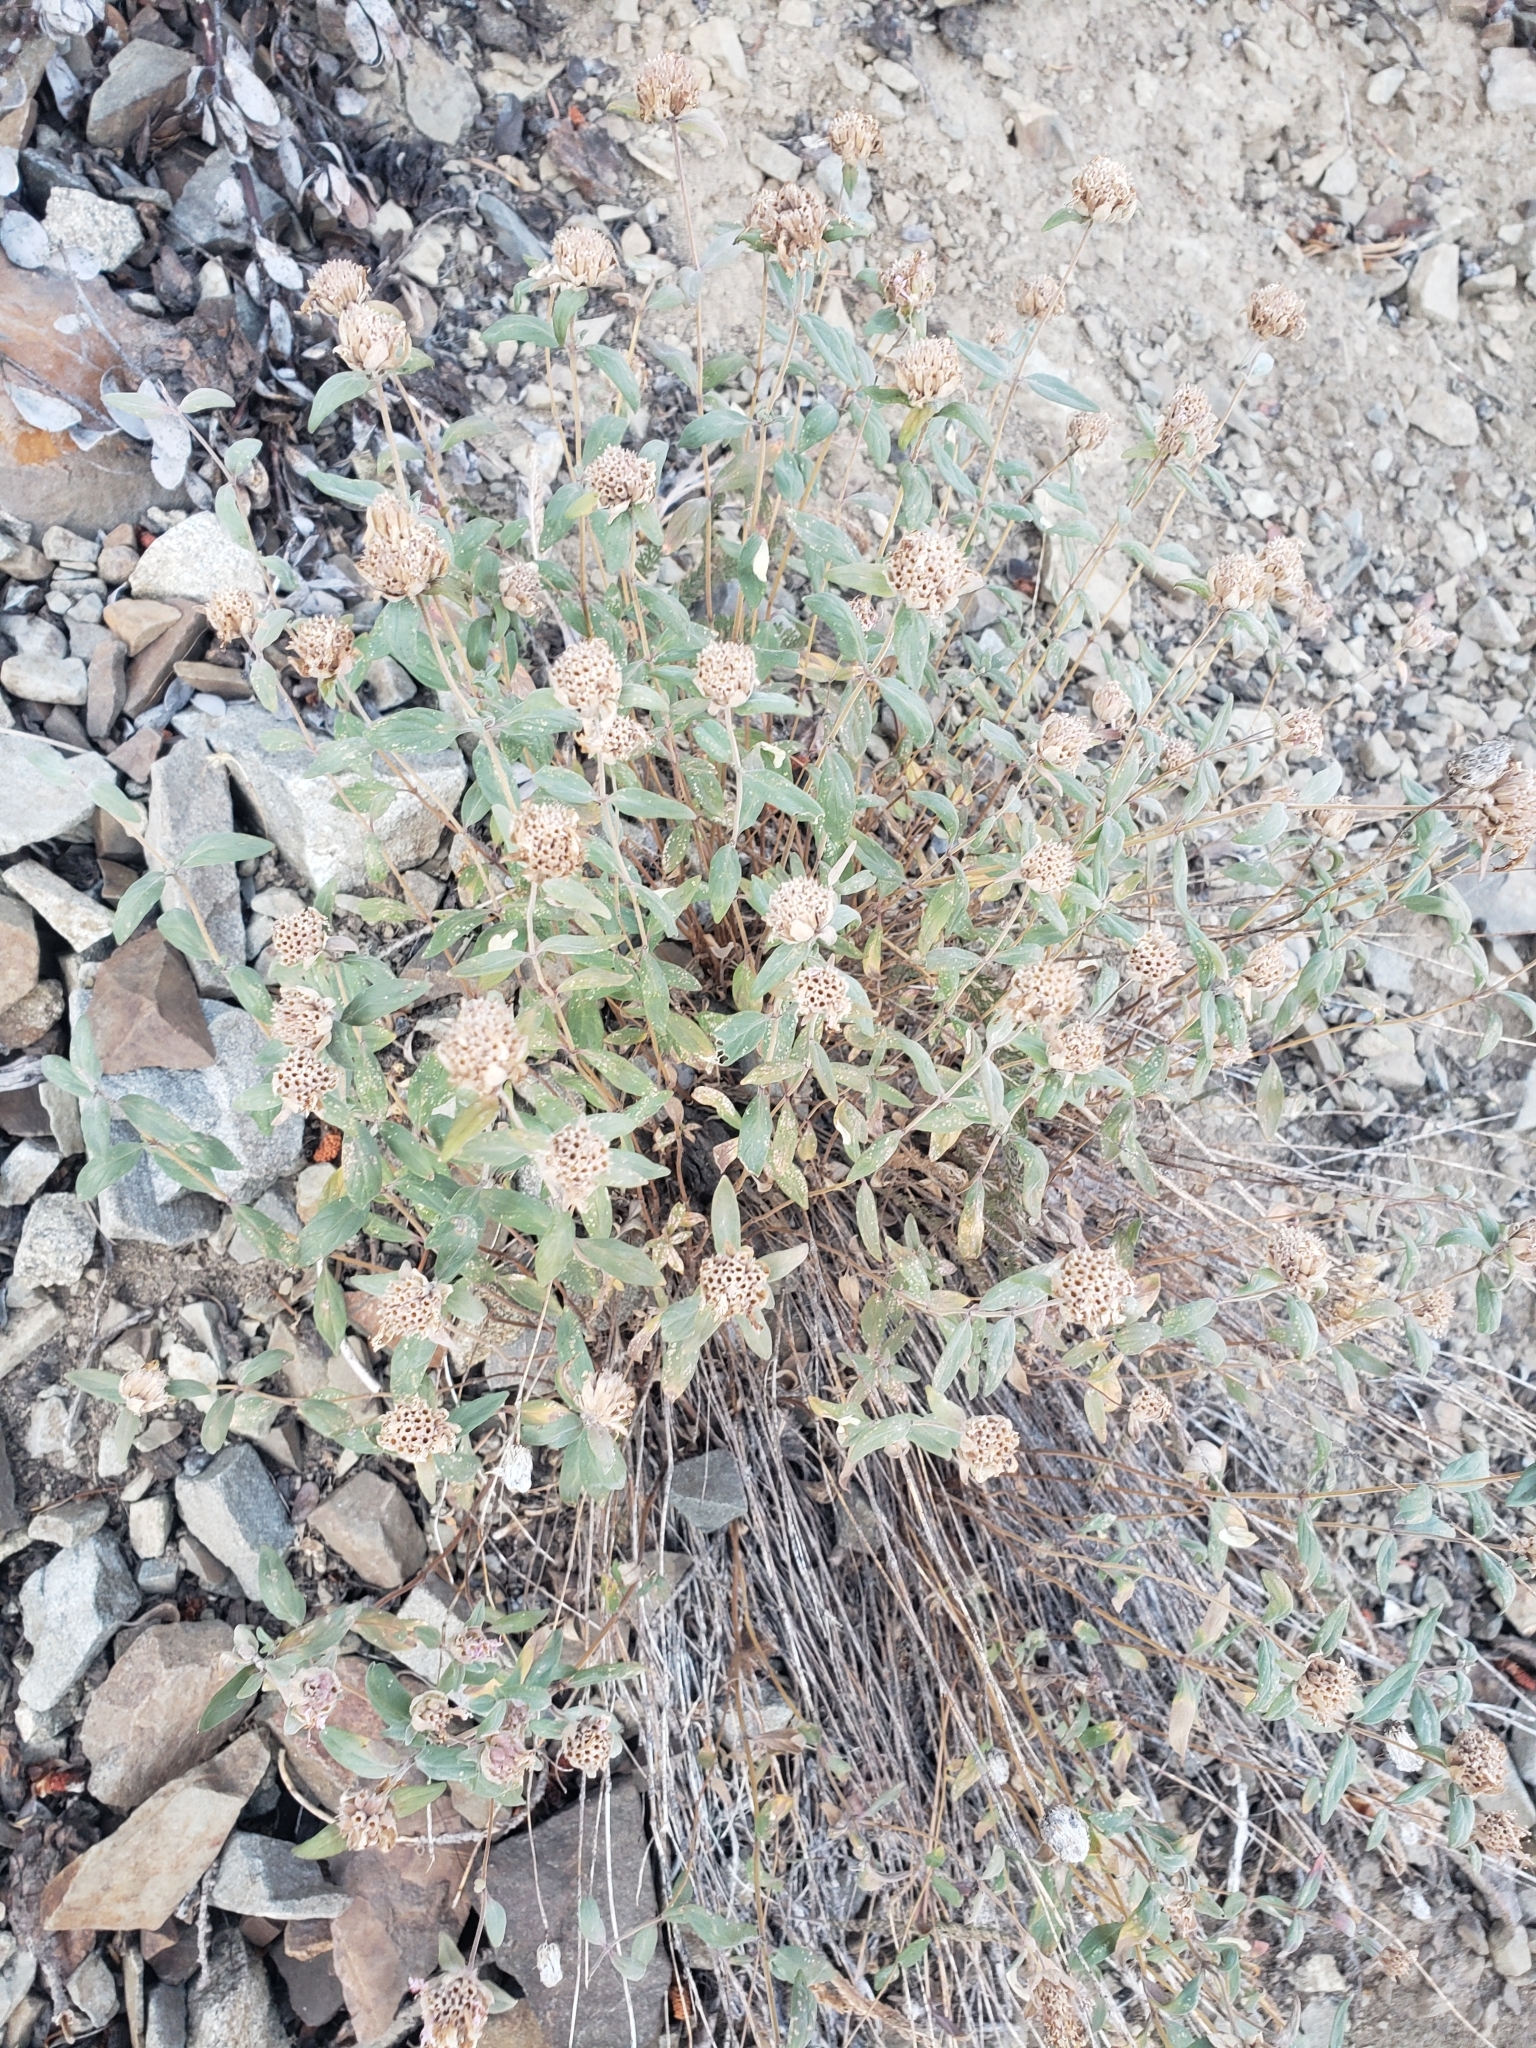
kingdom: Plantae
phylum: Tracheophyta
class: Magnoliopsida
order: Lamiales
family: Lamiaceae
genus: Monardella
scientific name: Monardella odoratissima
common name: Pacific monardella
